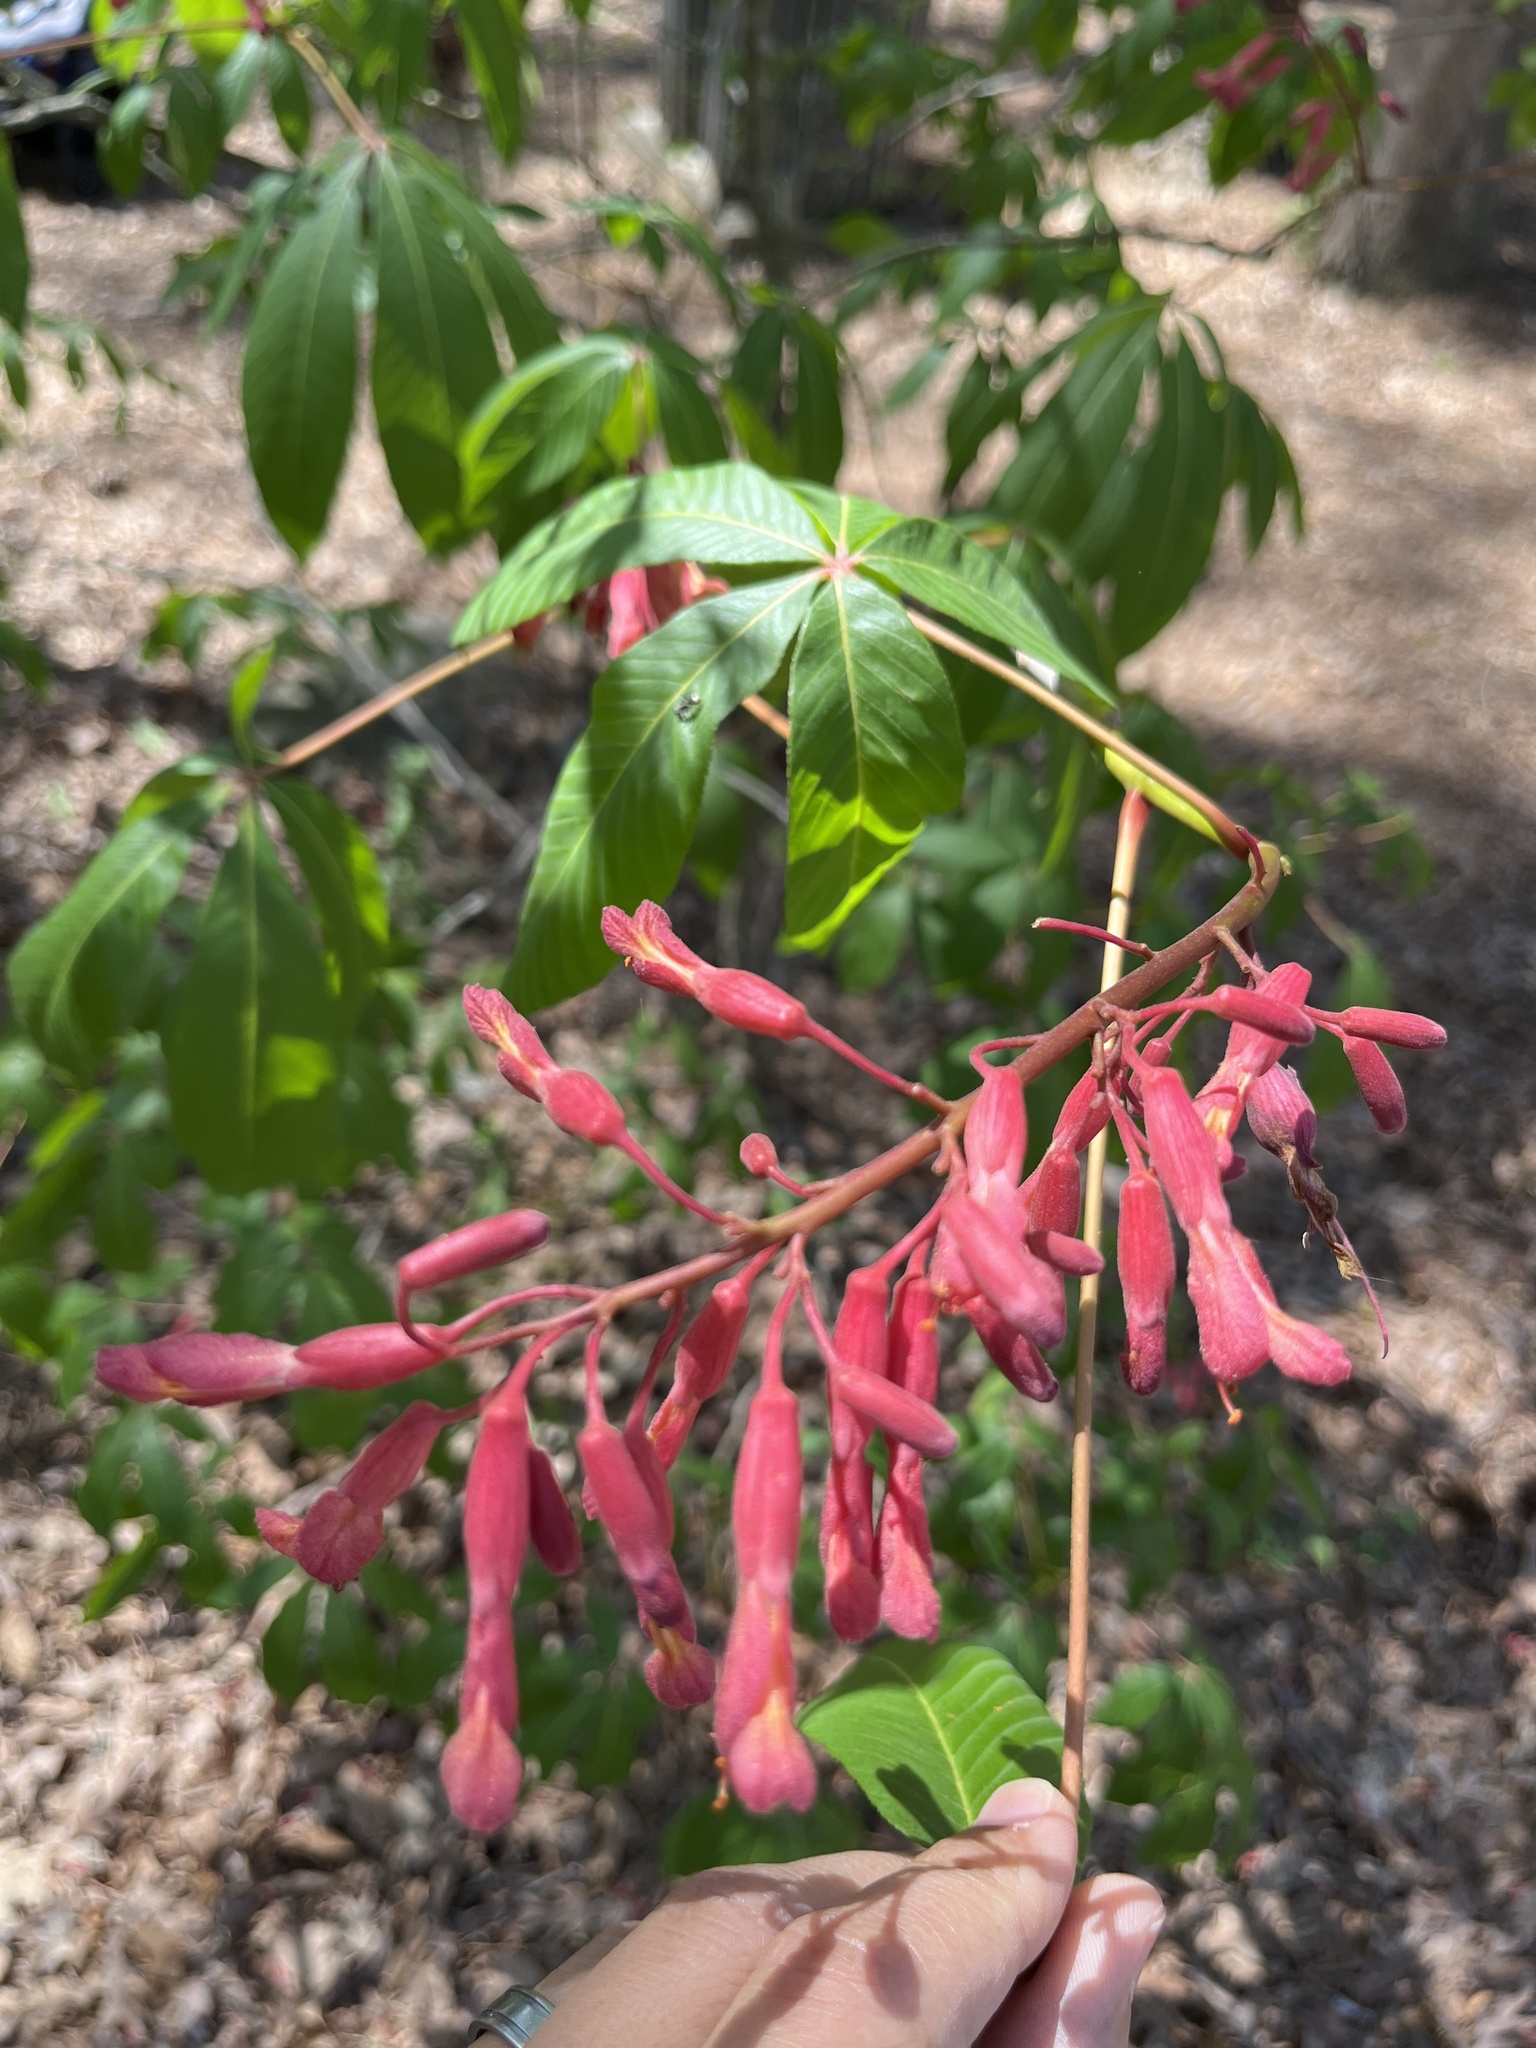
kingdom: Plantae
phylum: Tracheophyta
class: Magnoliopsida
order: Sapindales
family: Sapindaceae
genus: Aesculus
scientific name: Aesculus pavia
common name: Red buckeye
